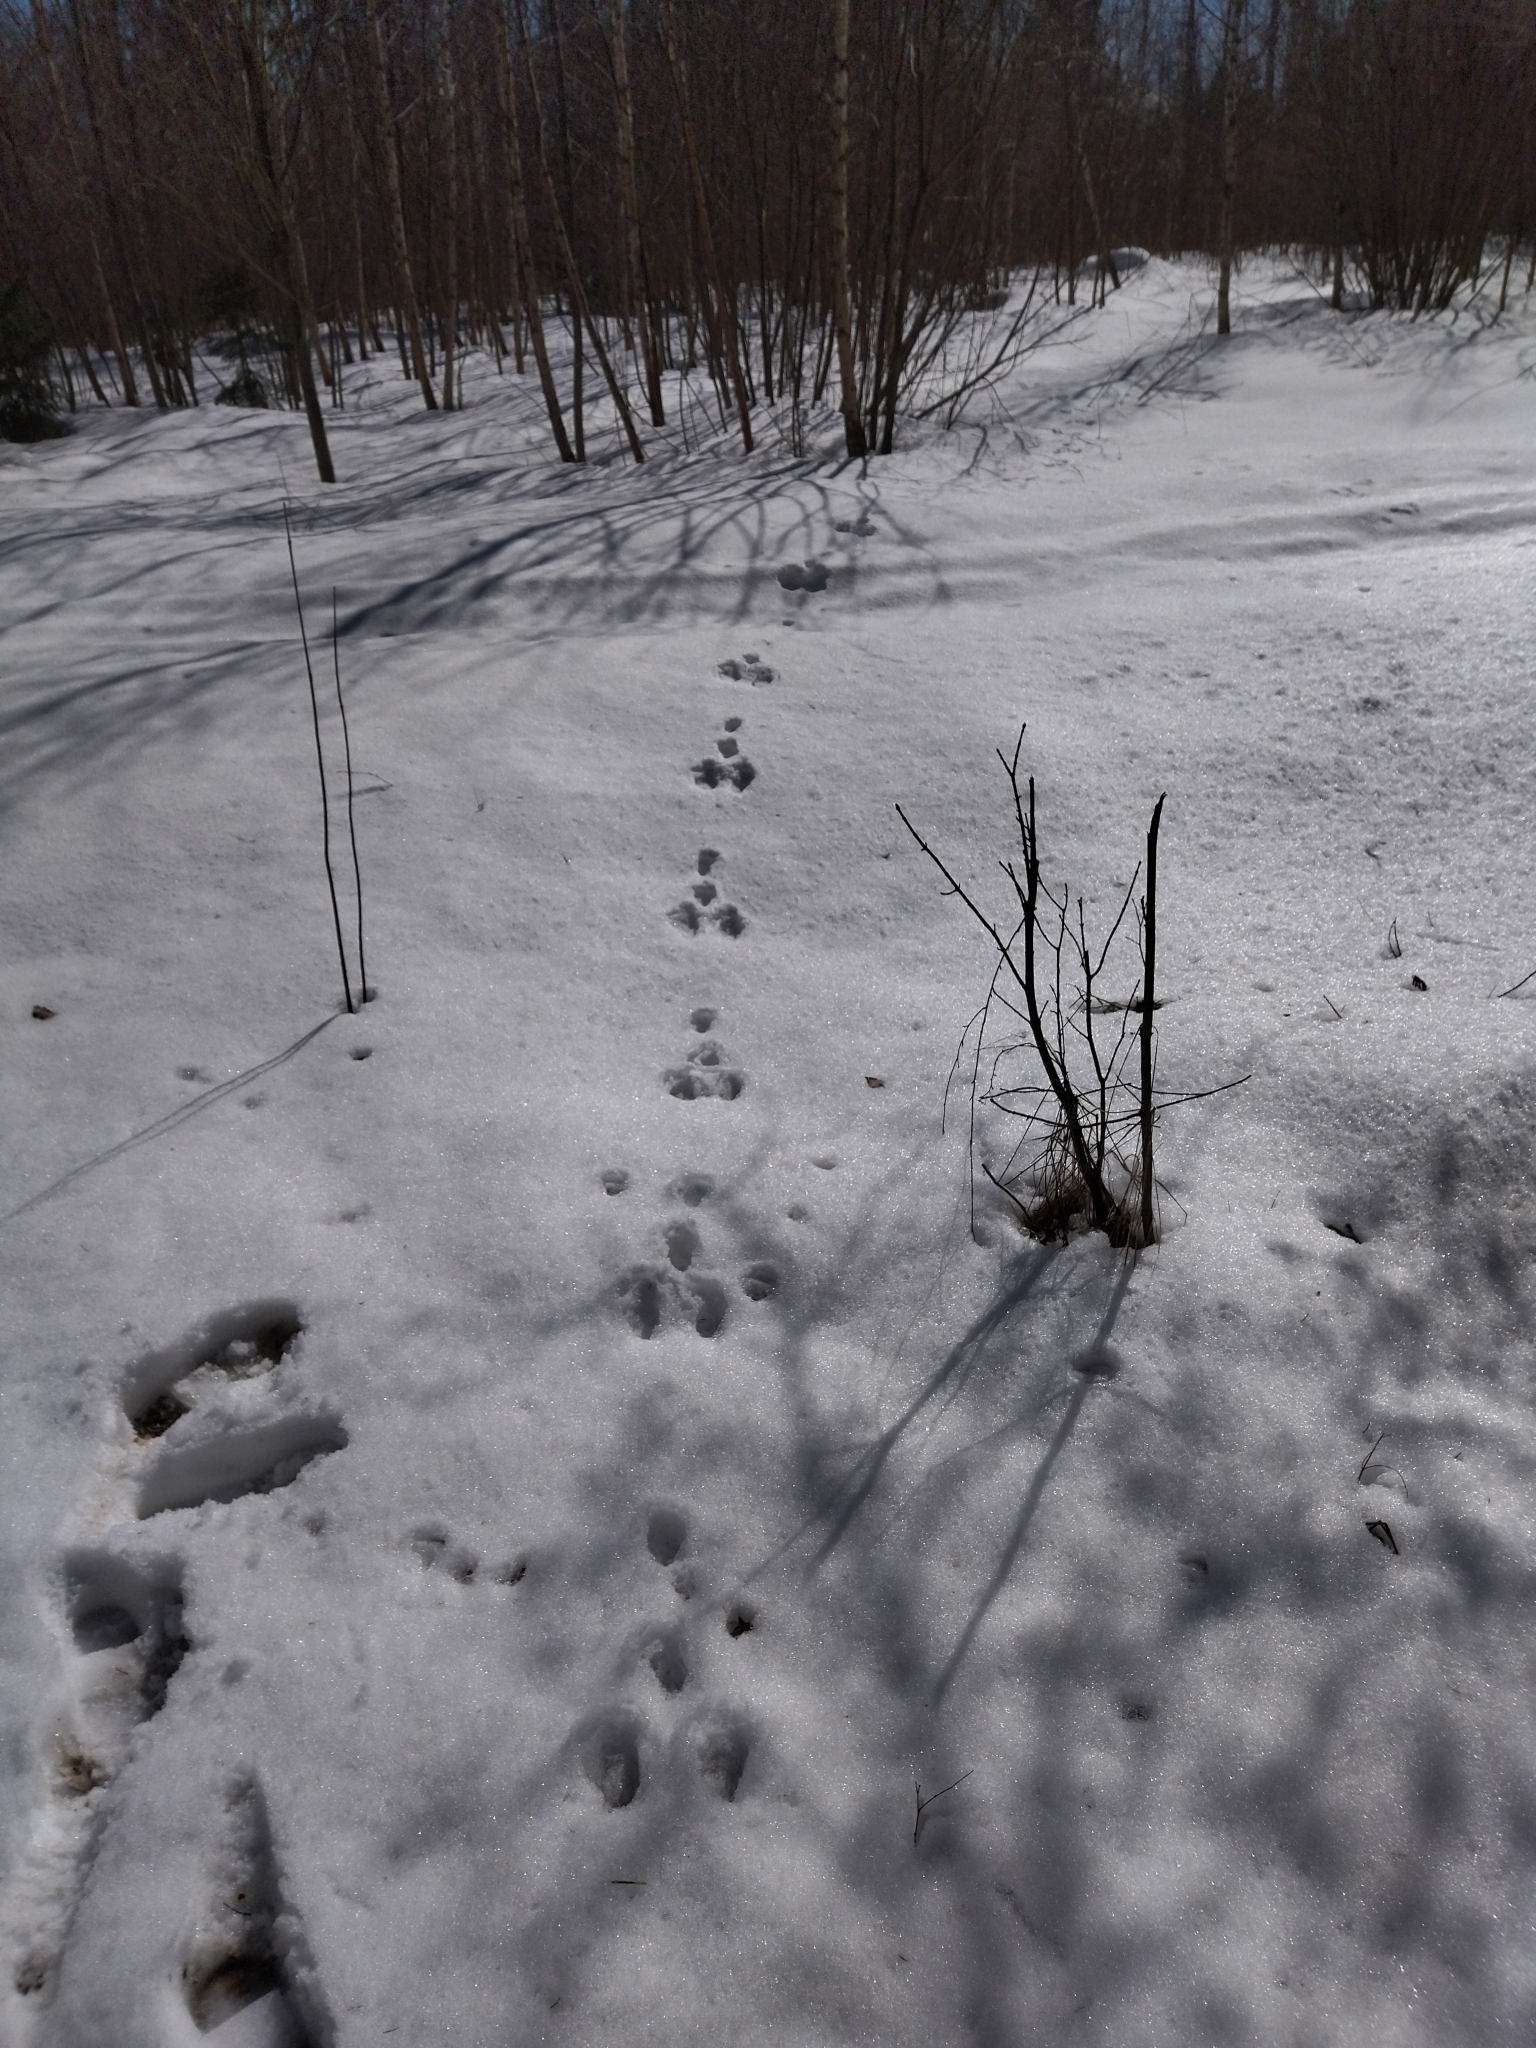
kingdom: Animalia
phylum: Chordata
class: Mammalia
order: Lagomorpha
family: Leporidae
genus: Lepus
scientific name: Lepus timidus
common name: Mountain hare
